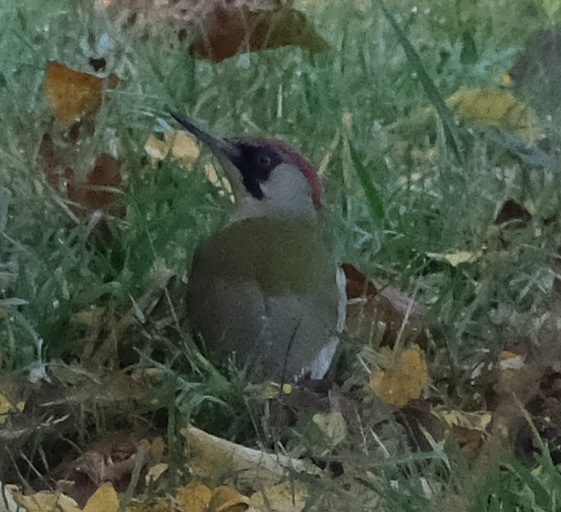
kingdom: Animalia
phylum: Chordata
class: Aves
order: Piciformes
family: Picidae
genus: Picus
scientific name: Picus viridis
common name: European green woodpecker
